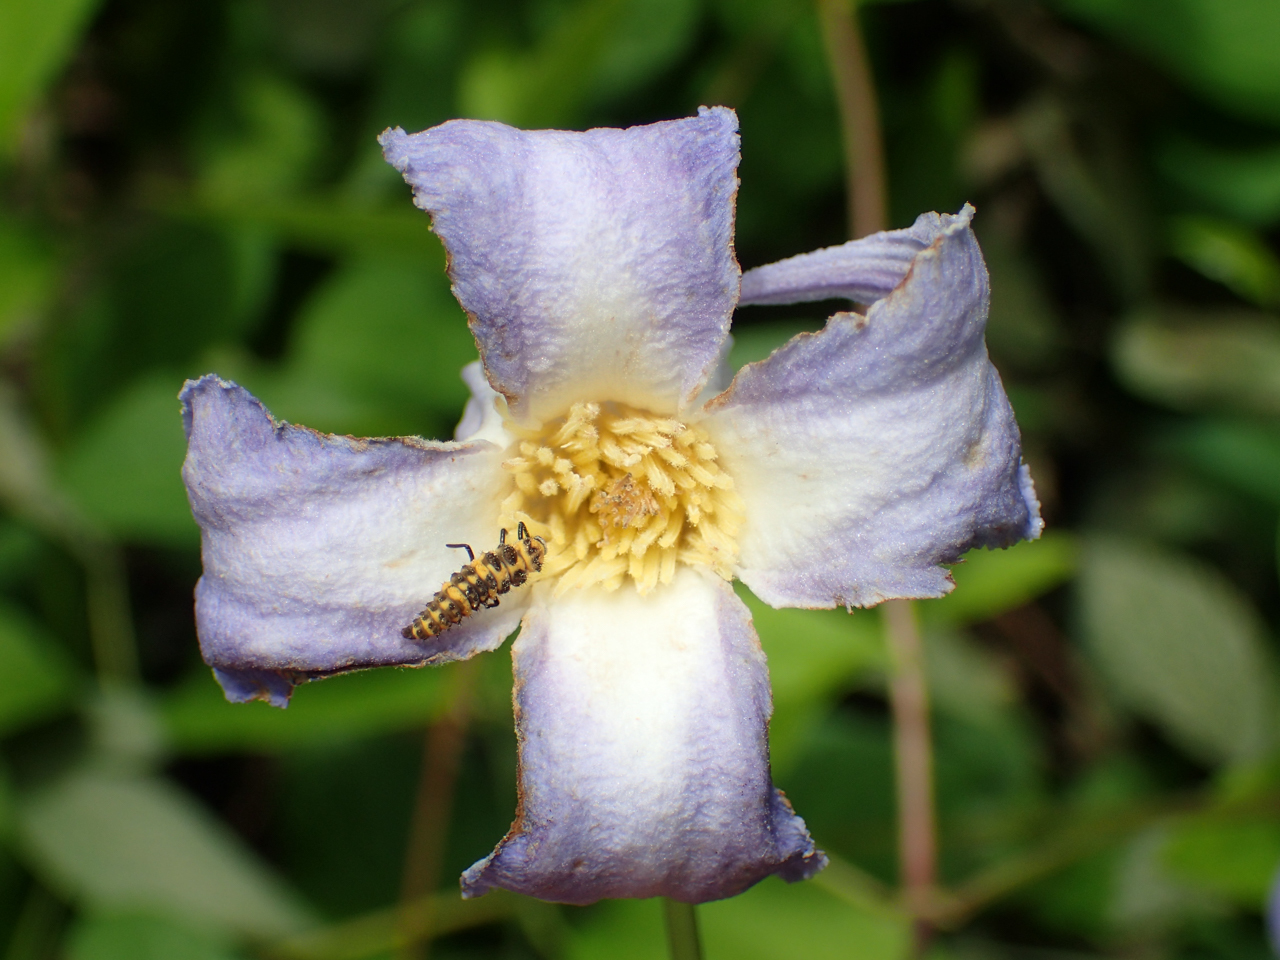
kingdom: Plantae
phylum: Tracheophyta
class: Magnoliopsida
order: Ranunculales
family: Ranunculaceae
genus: Clematis
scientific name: Clematis crispa
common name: Curly clematis
